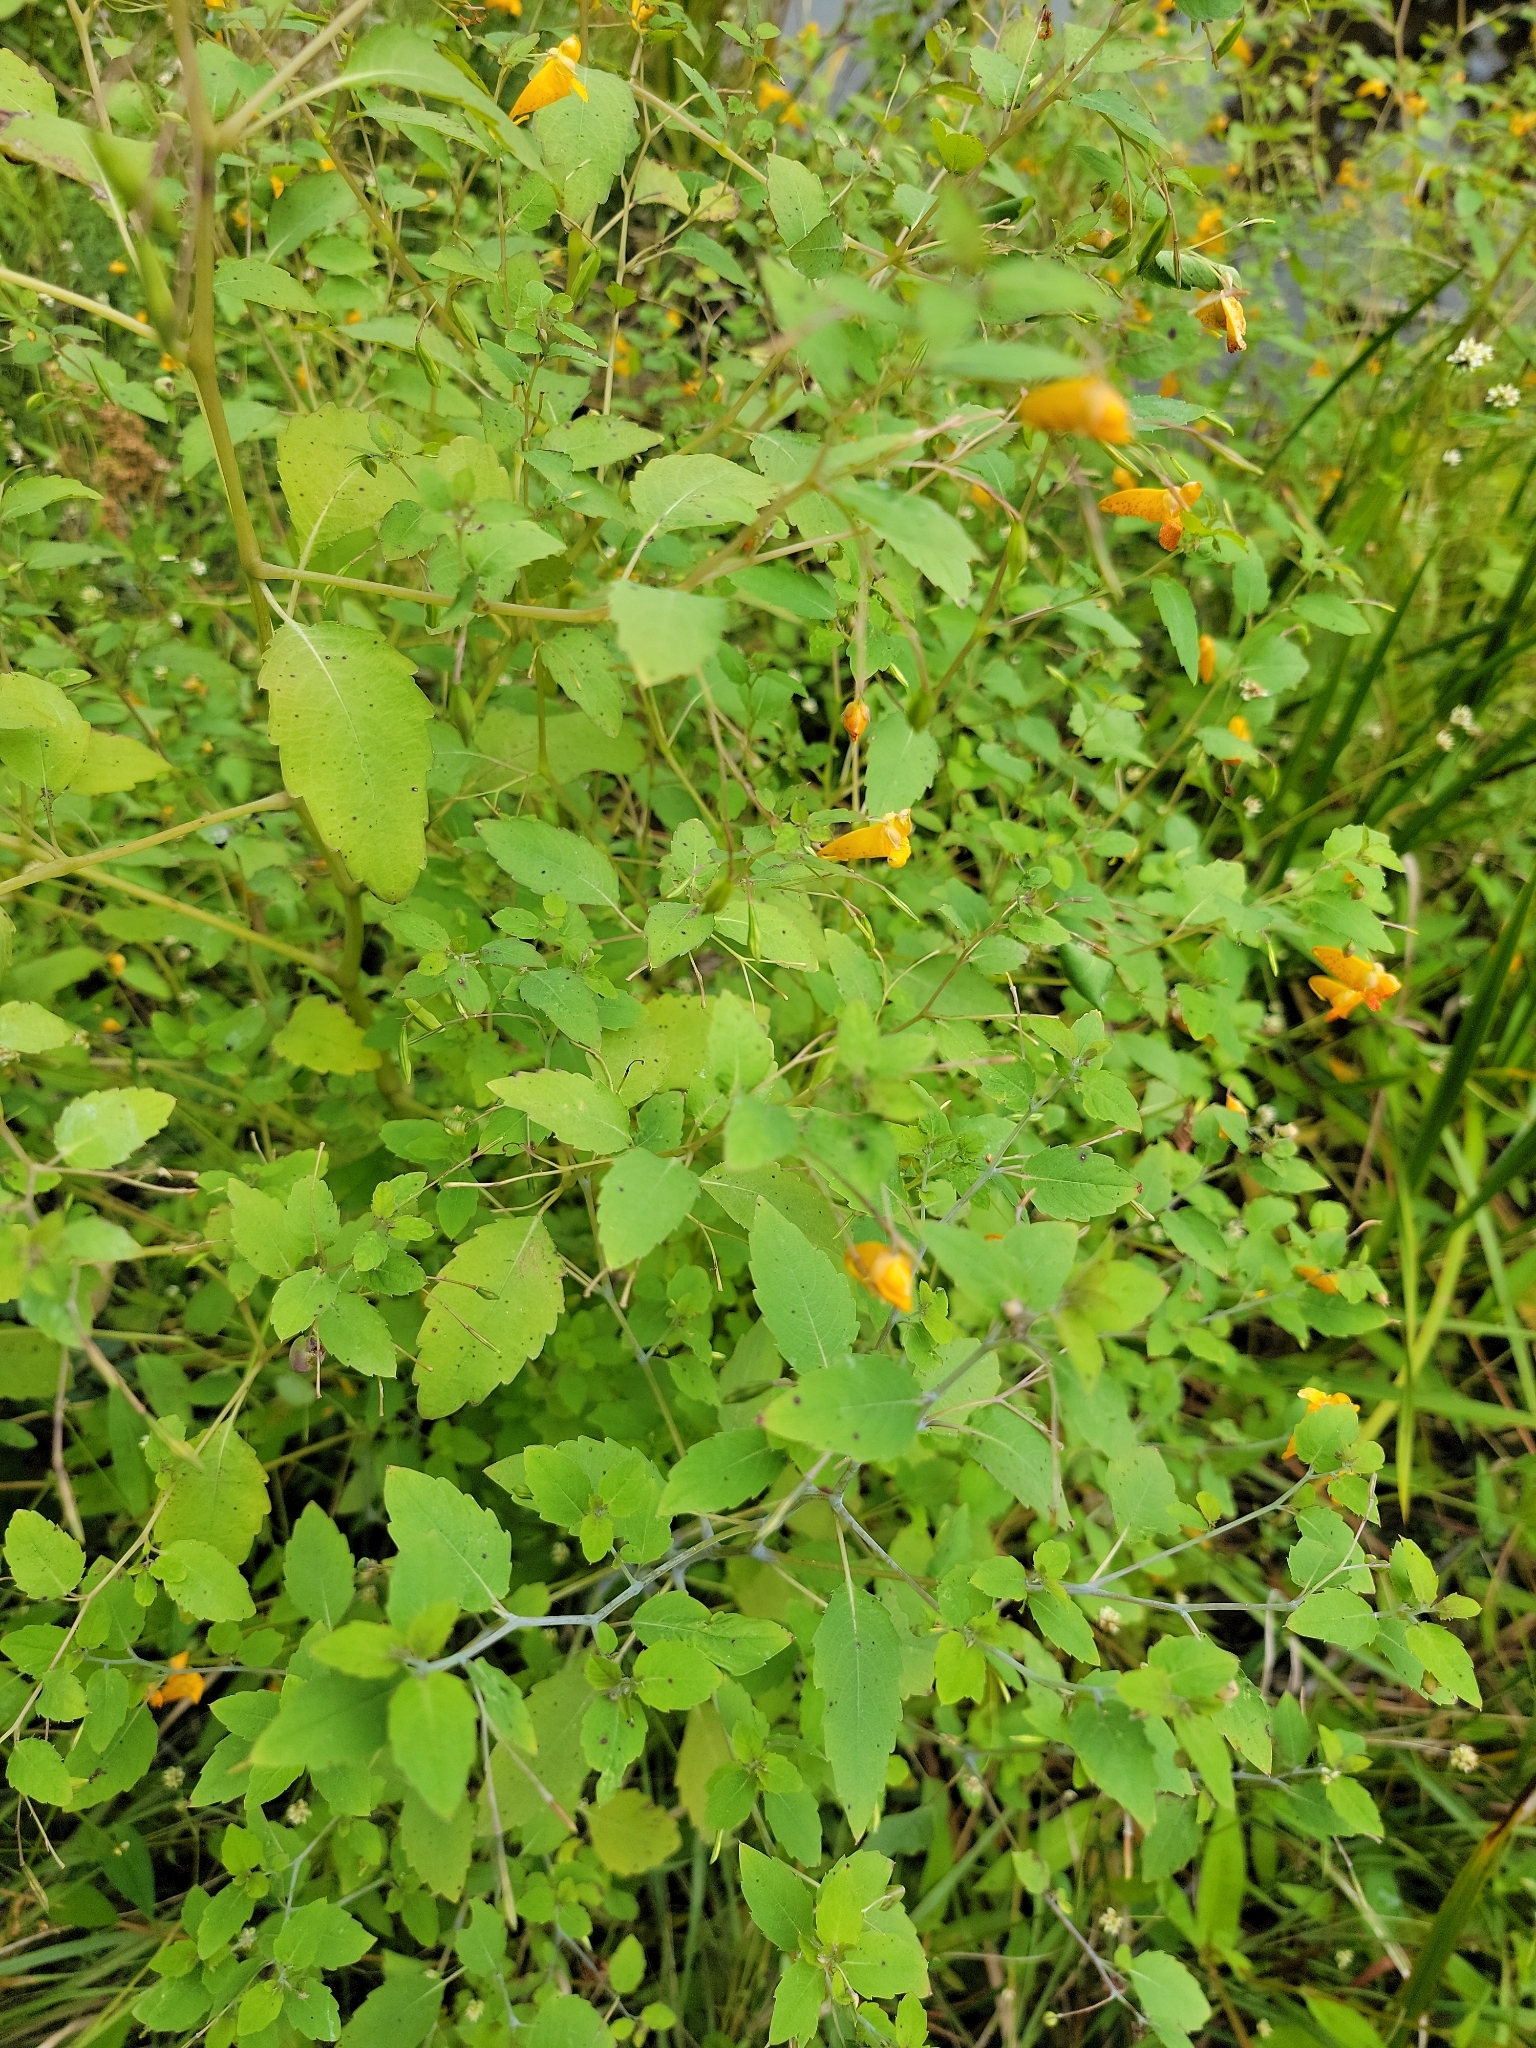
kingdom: Plantae
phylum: Tracheophyta
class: Magnoliopsida
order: Ericales
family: Balsaminaceae
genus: Impatiens
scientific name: Impatiens capensis
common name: Orange balsam
